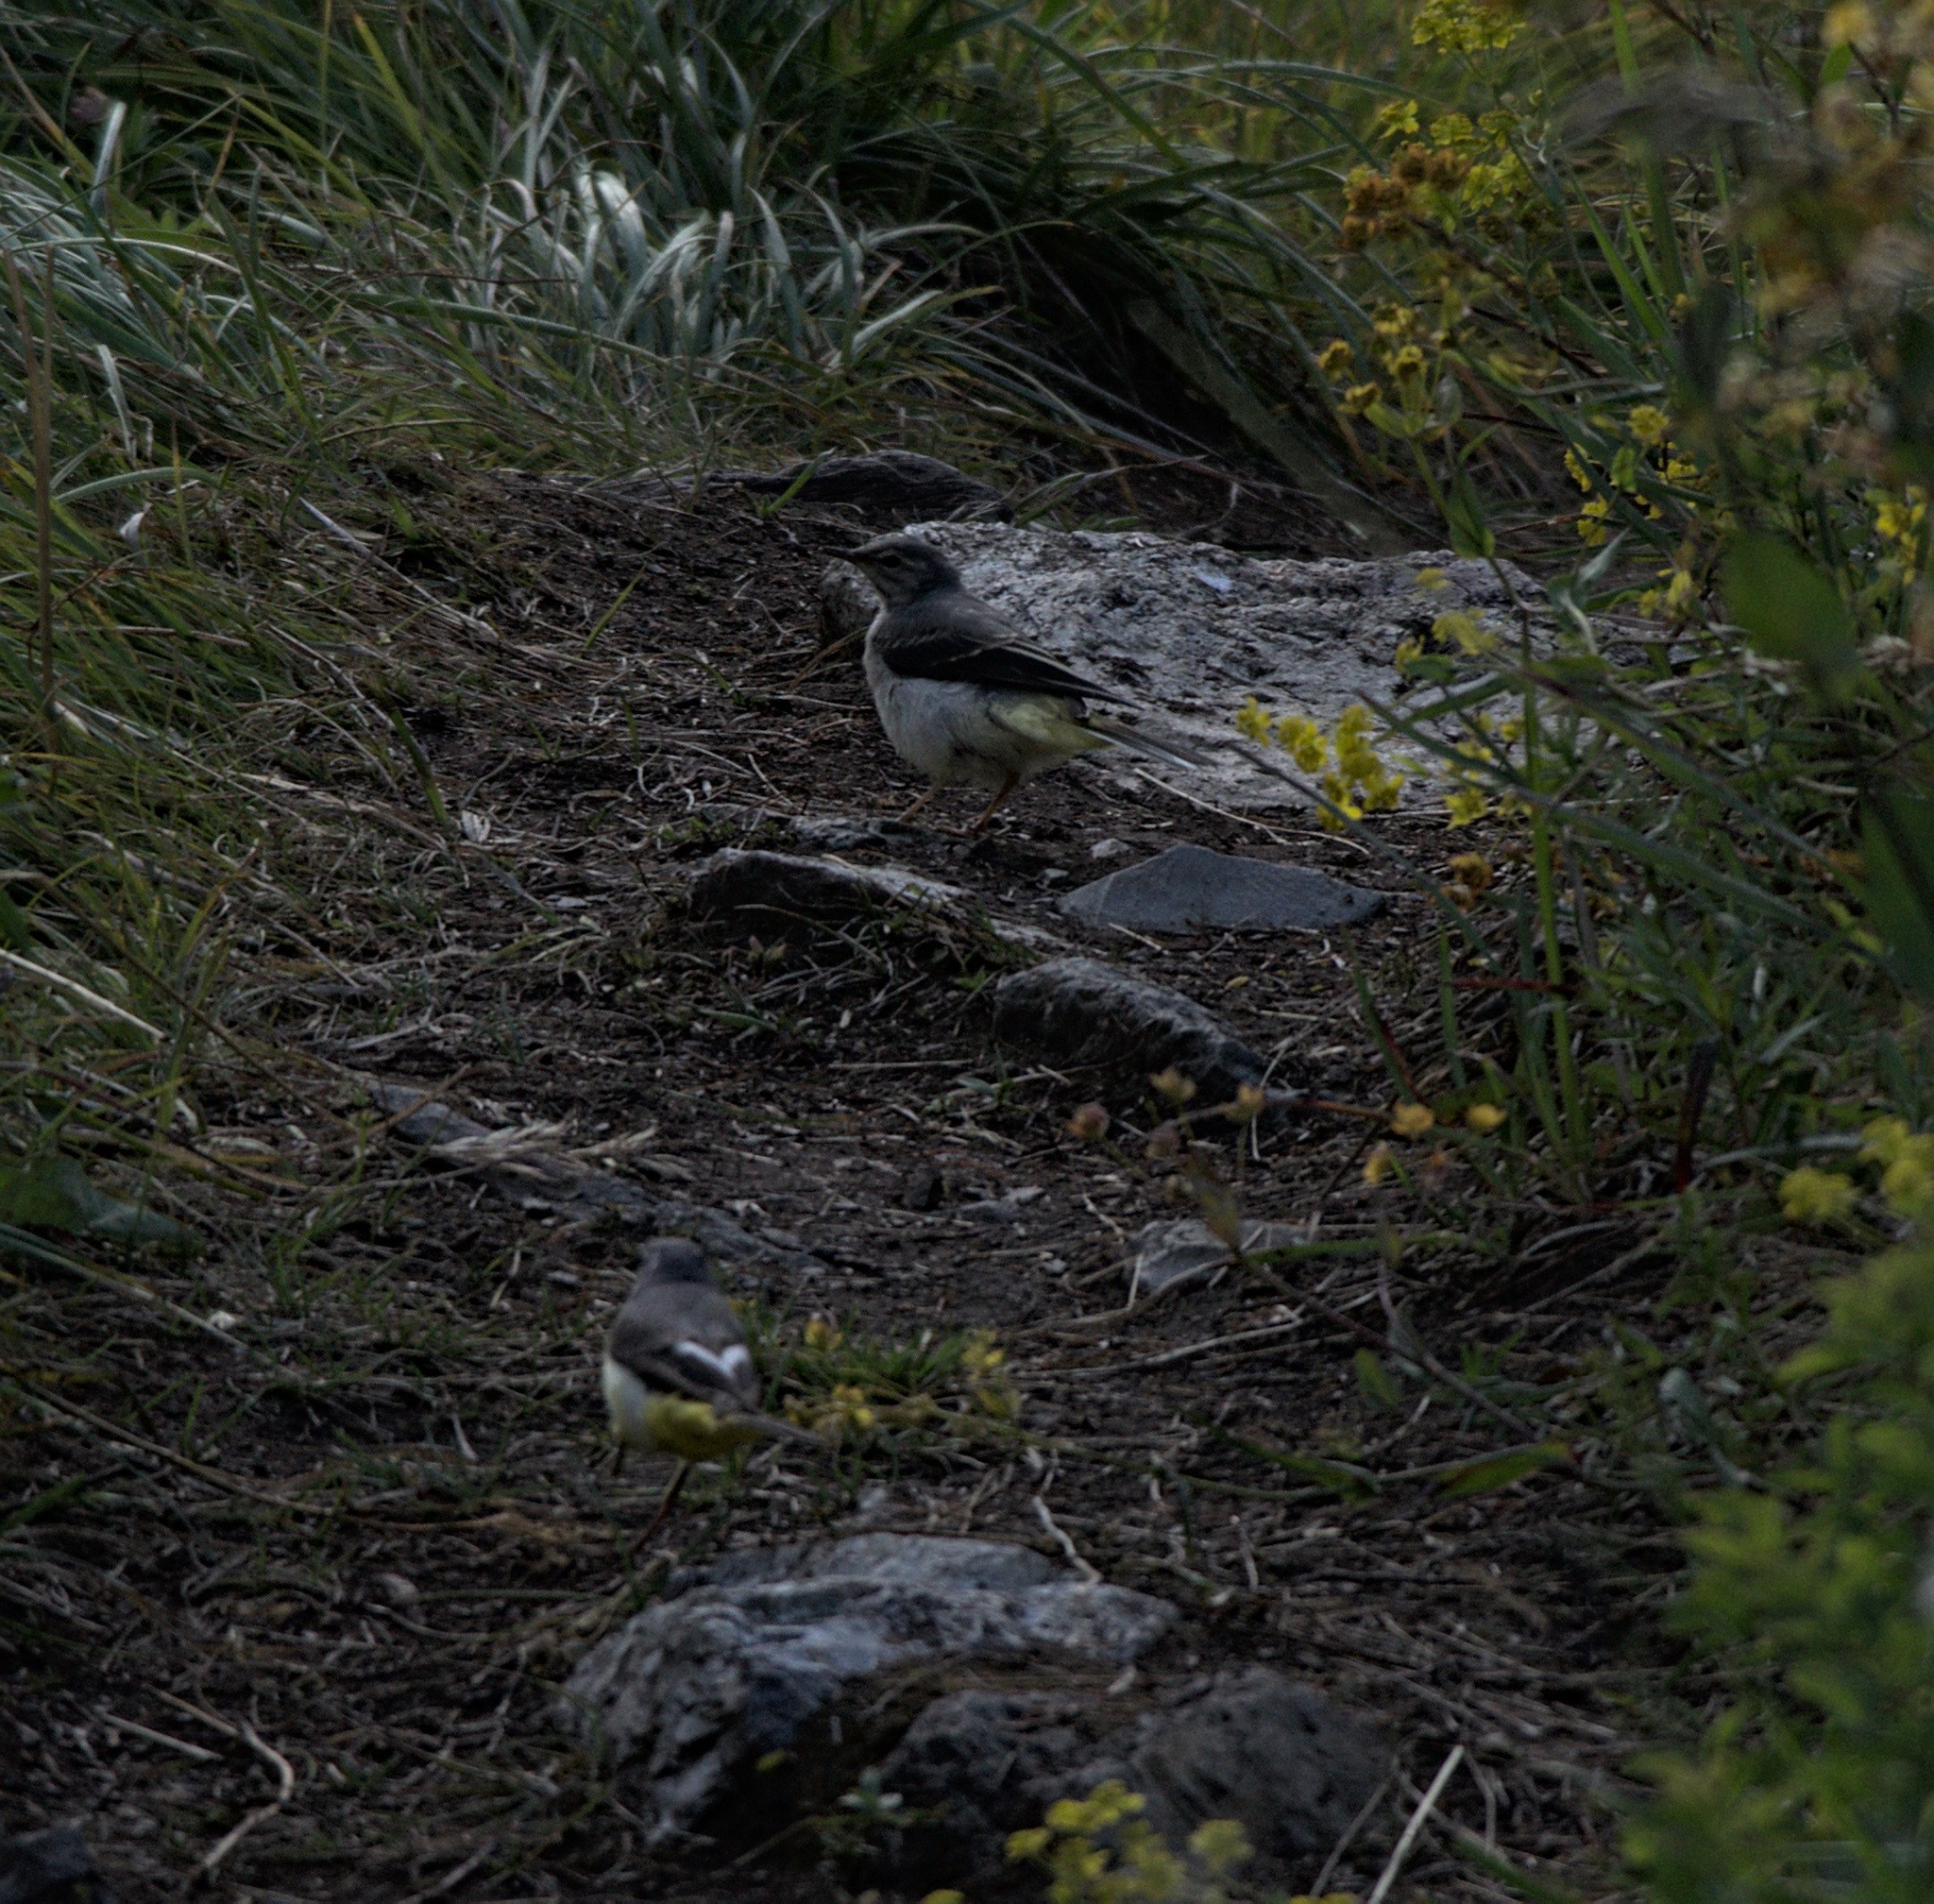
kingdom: Animalia
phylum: Chordata
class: Aves
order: Passeriformes
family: Motacillidae
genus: Motacilla
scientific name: Motacilla cinerea
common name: Grey wagtail
